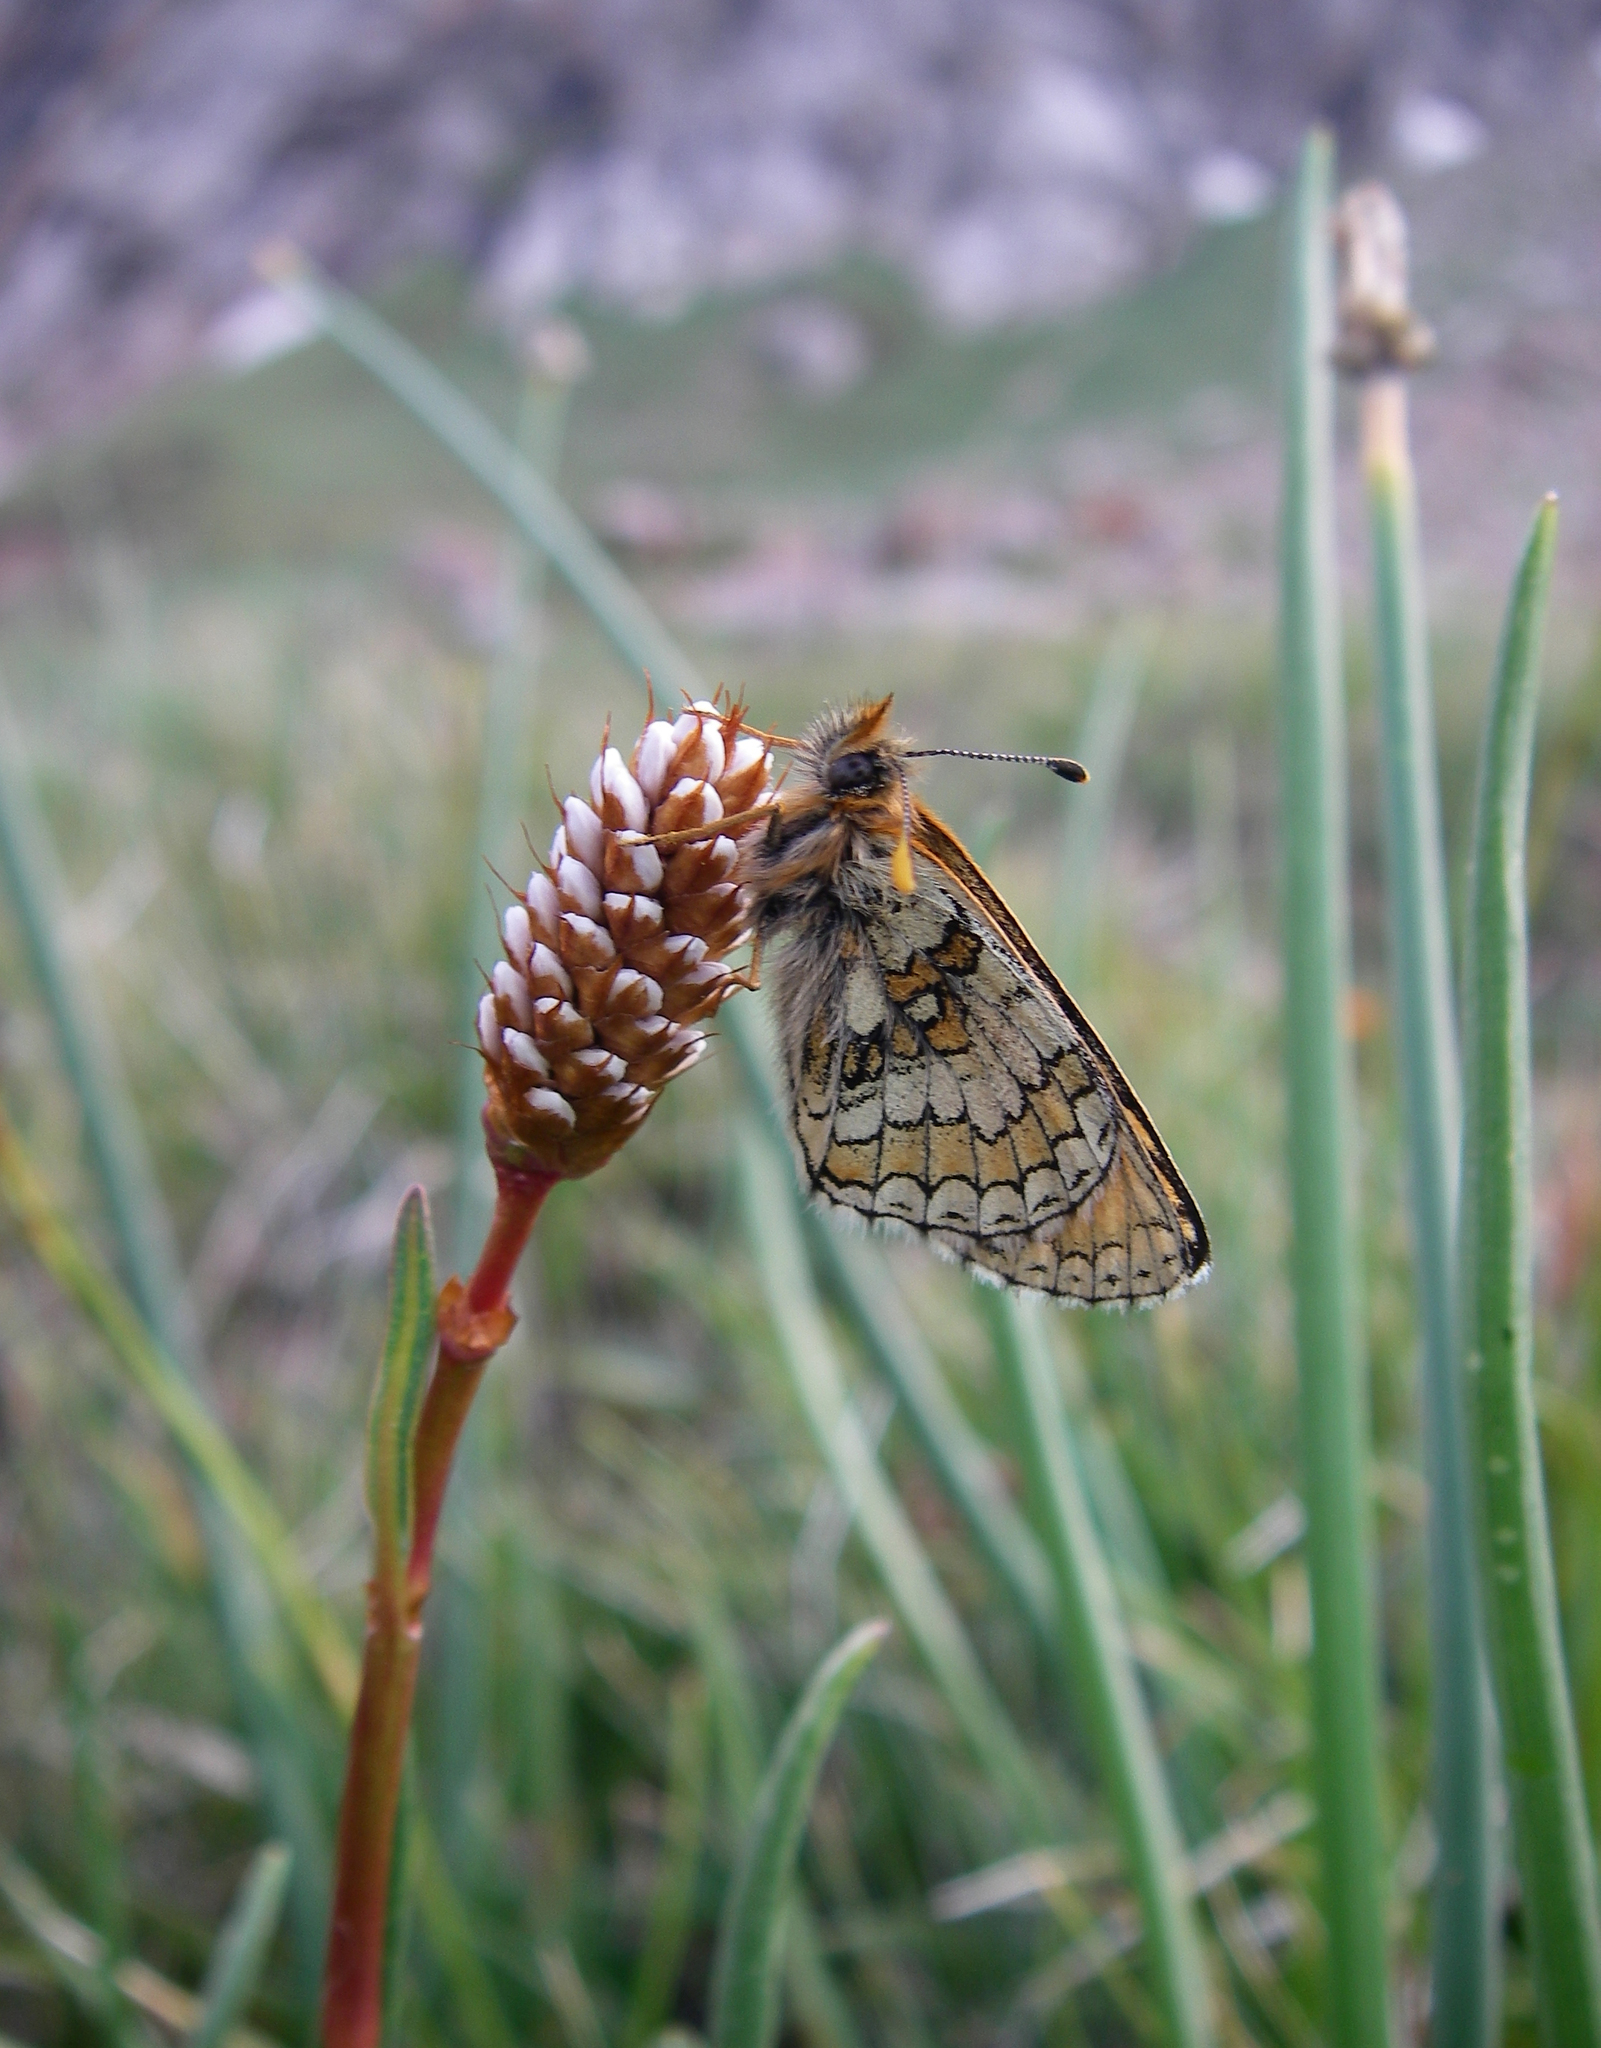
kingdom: Plantae
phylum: Tracheophyta
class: Magnoliopsida
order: Caryophyllales
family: Polygonaceae
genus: Bistorta
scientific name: Bistorta elliptica
